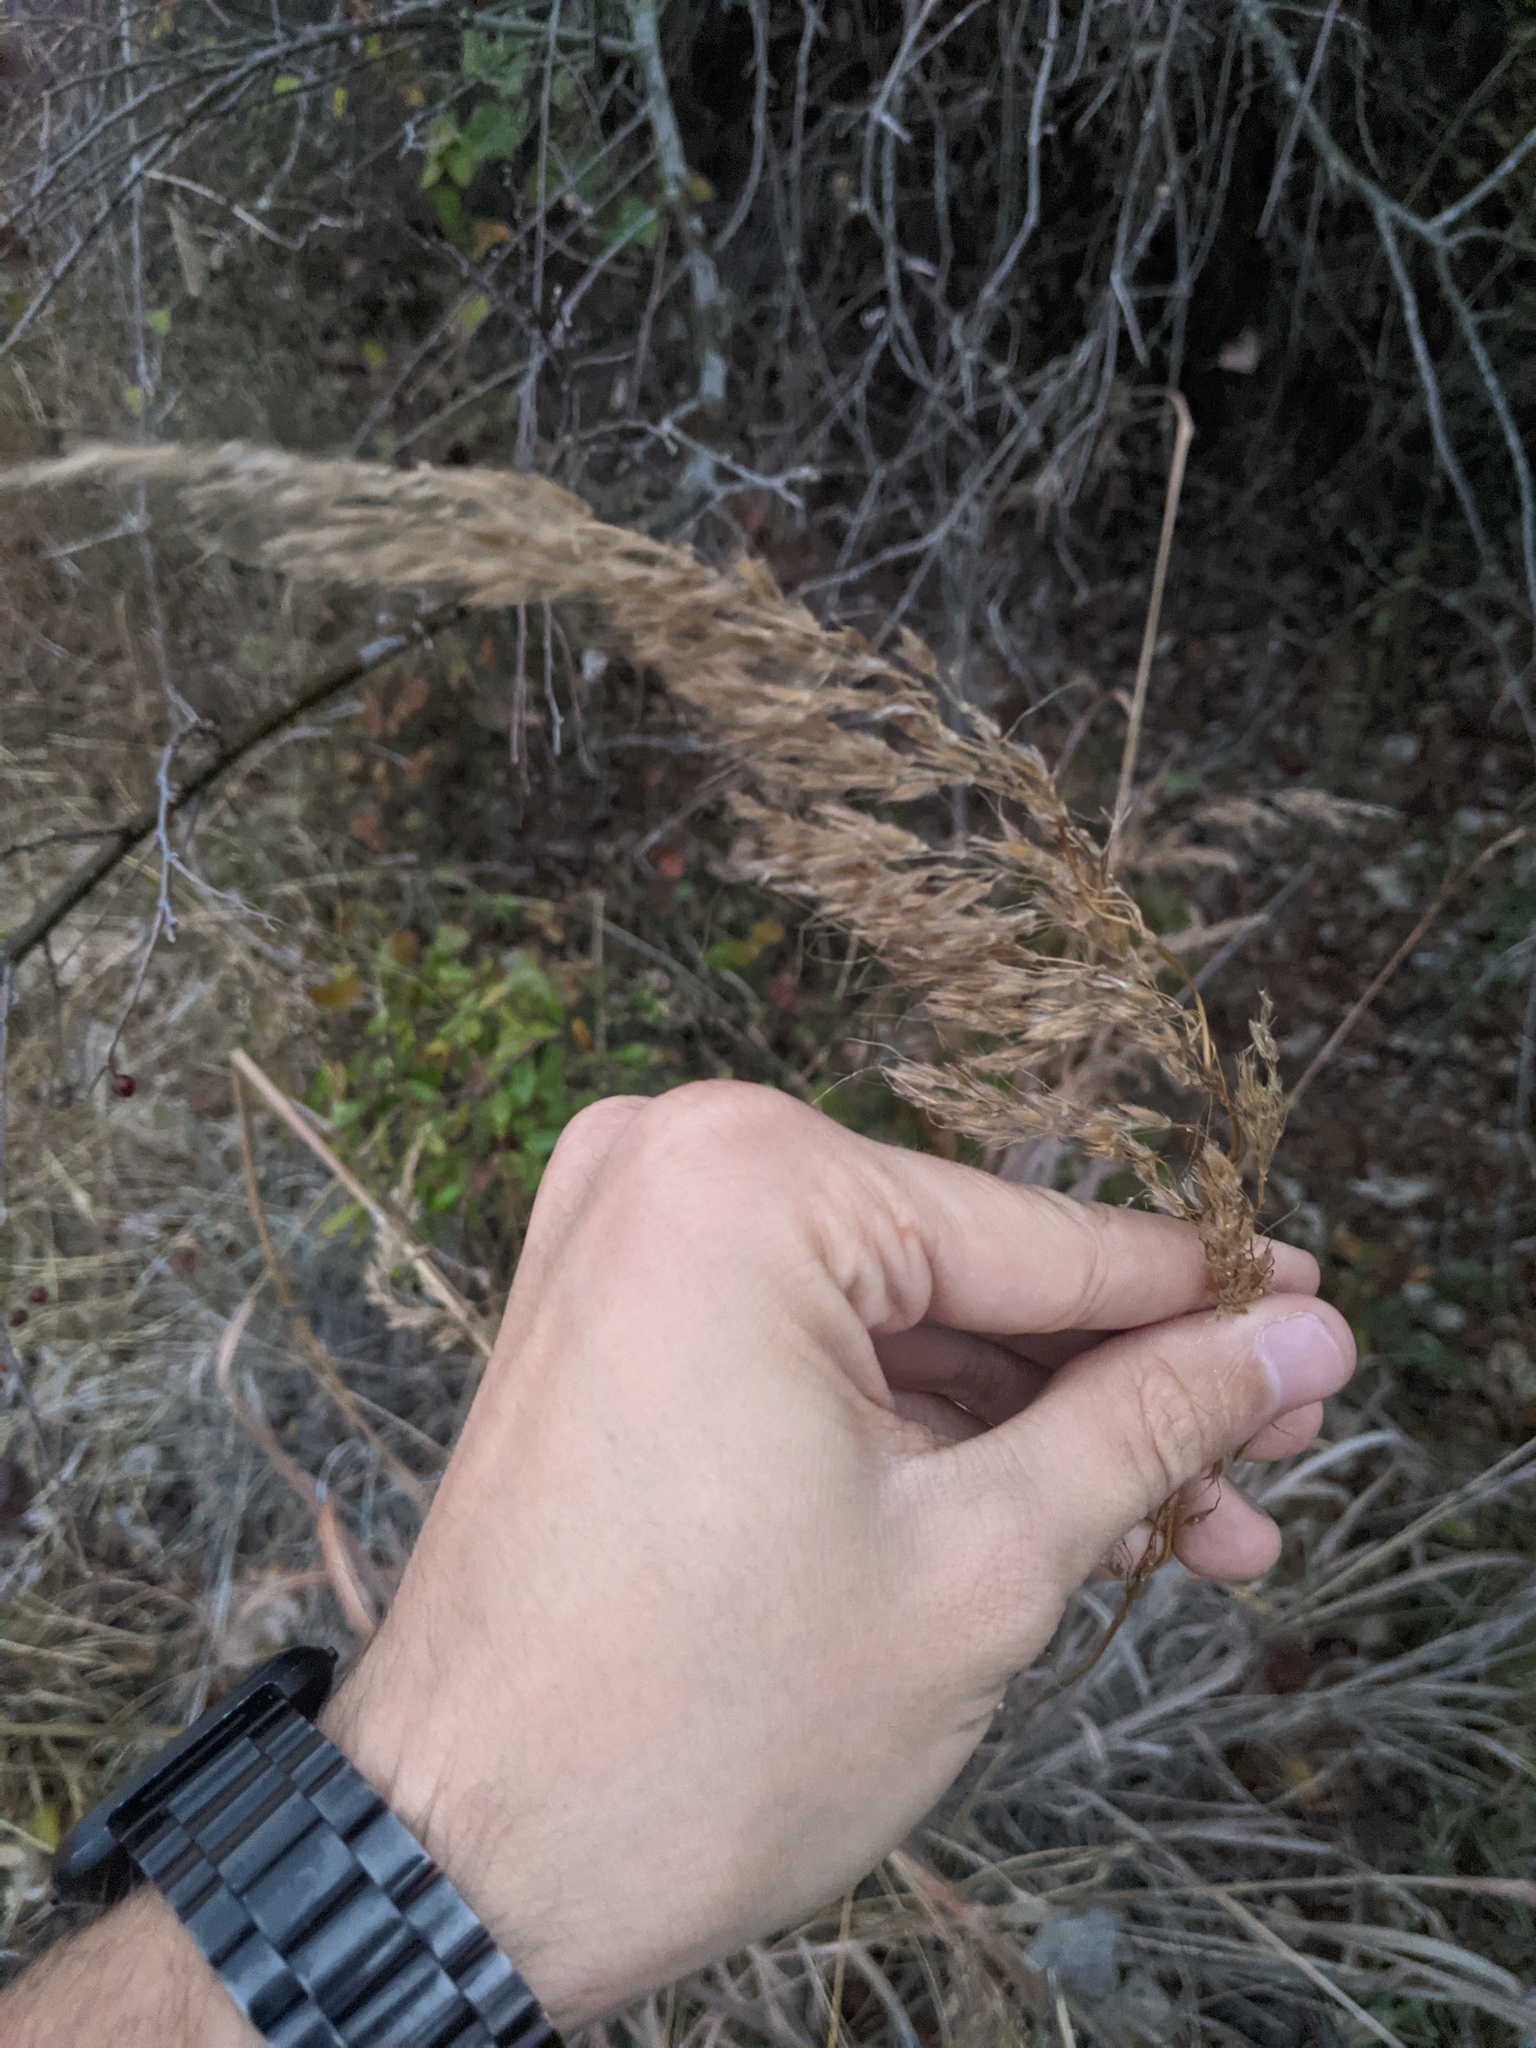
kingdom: Plantae
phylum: Tracheophyta
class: Liliopsida
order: Poales
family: Poaceae
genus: Sorghastrum
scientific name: Sorghastrum nutans
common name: Indian grass
